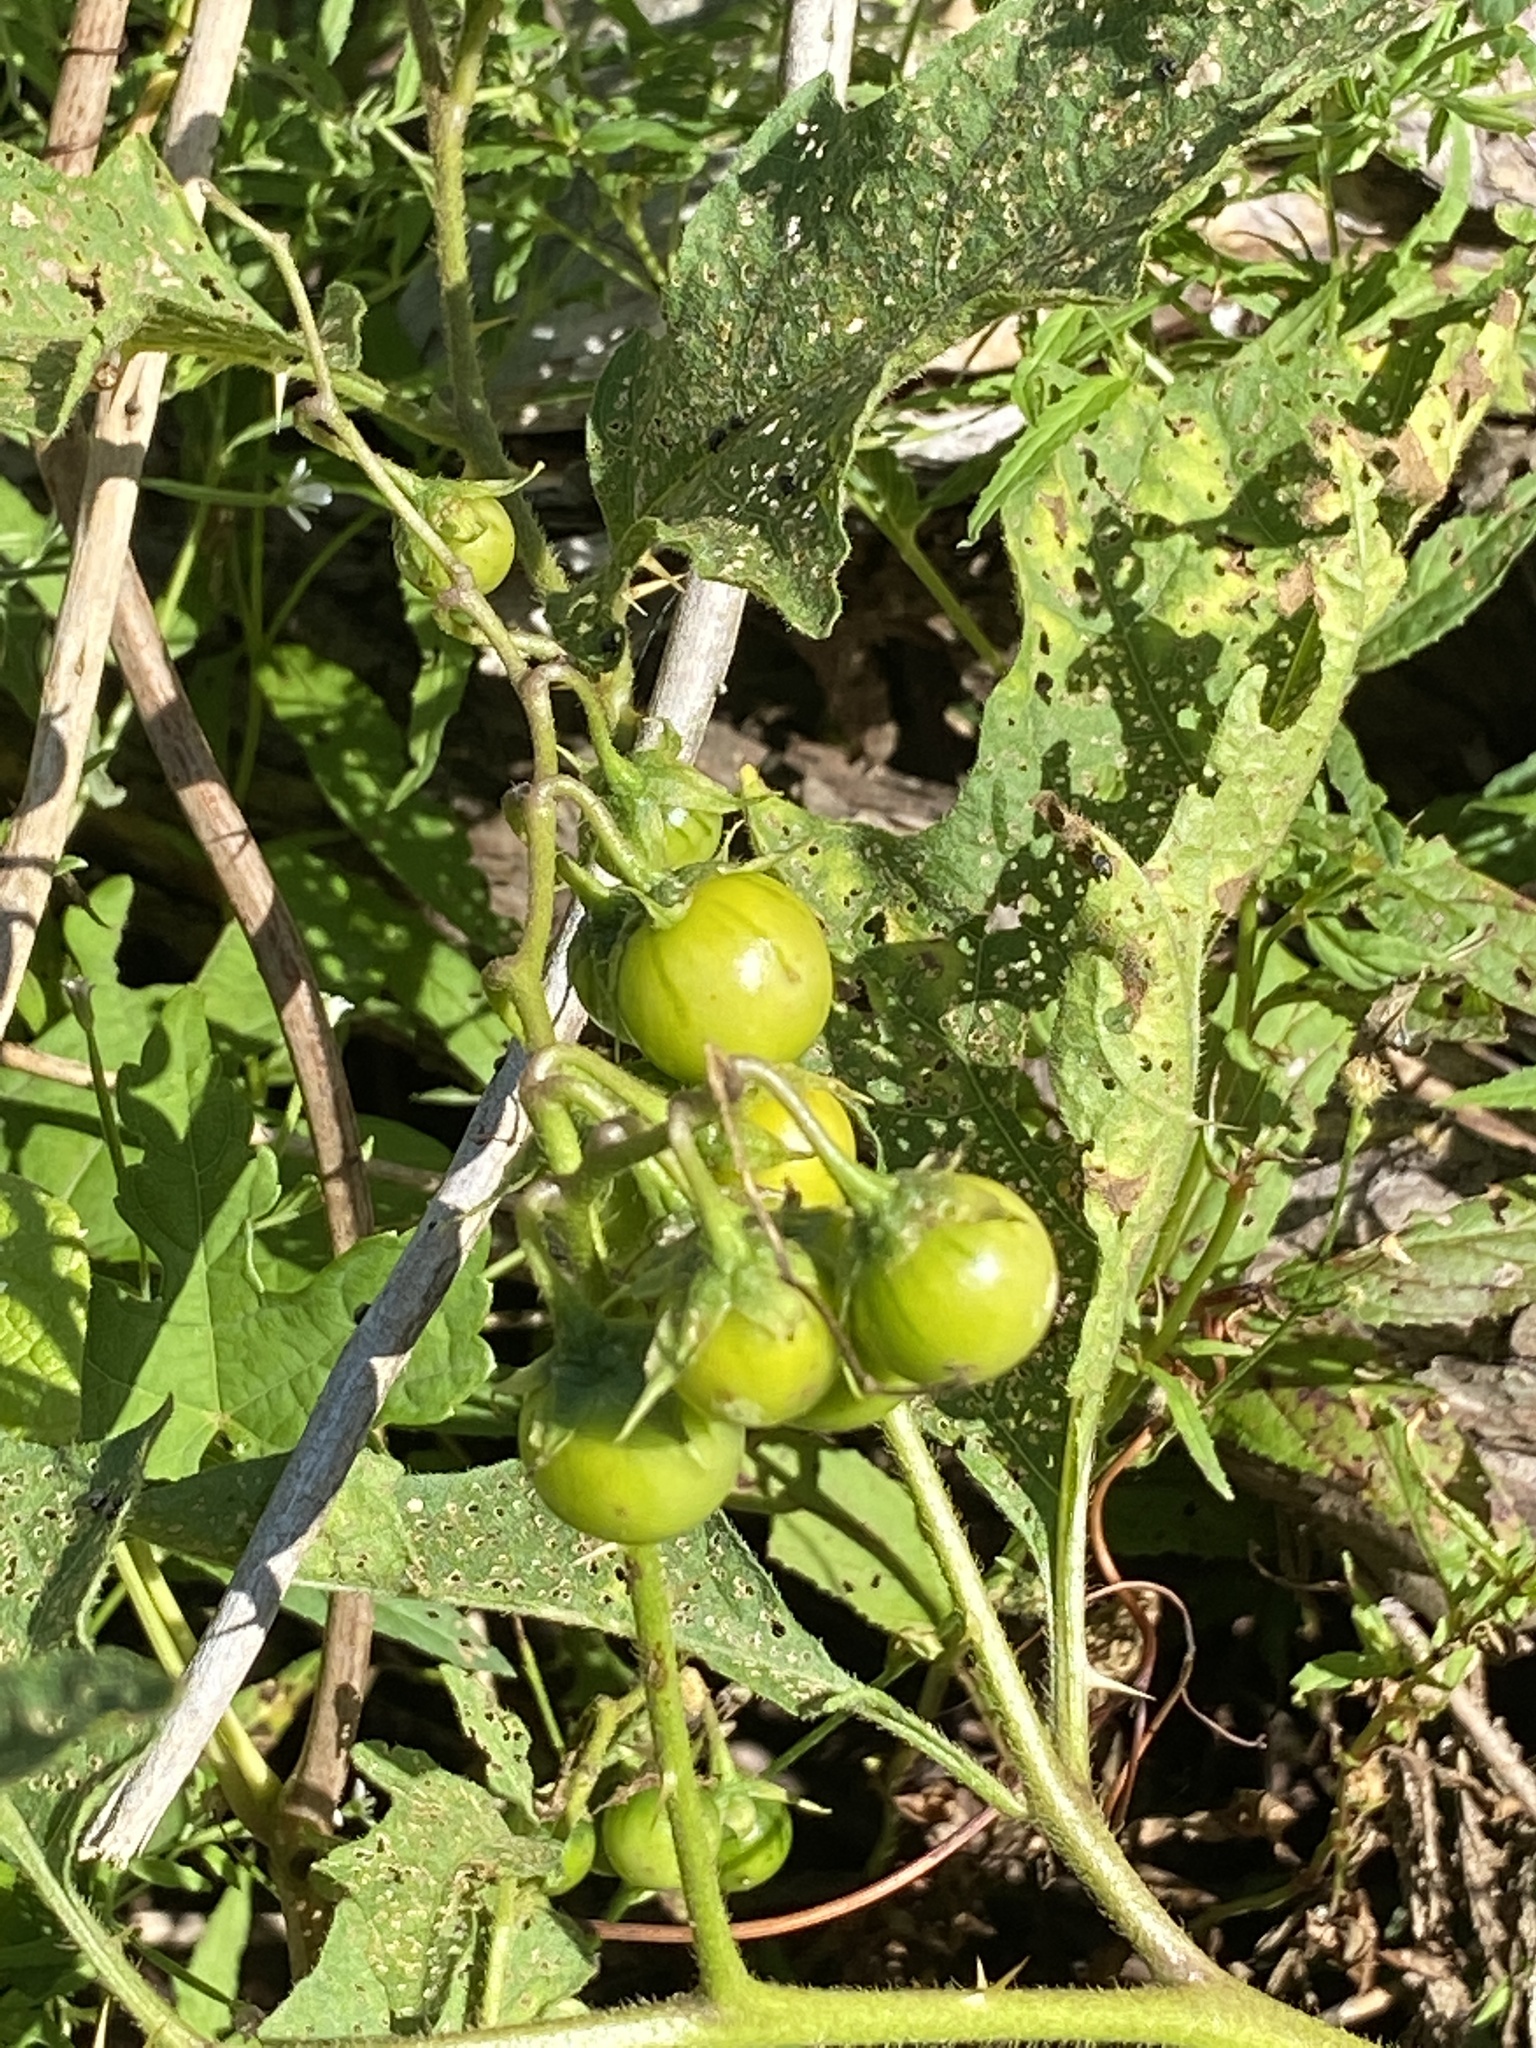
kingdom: Plantae
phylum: Tracheophyta
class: Magnoliopsida
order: Solanales
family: Solanaceae
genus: Solanum
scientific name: Solanum carolinense
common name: Horse-nettle
